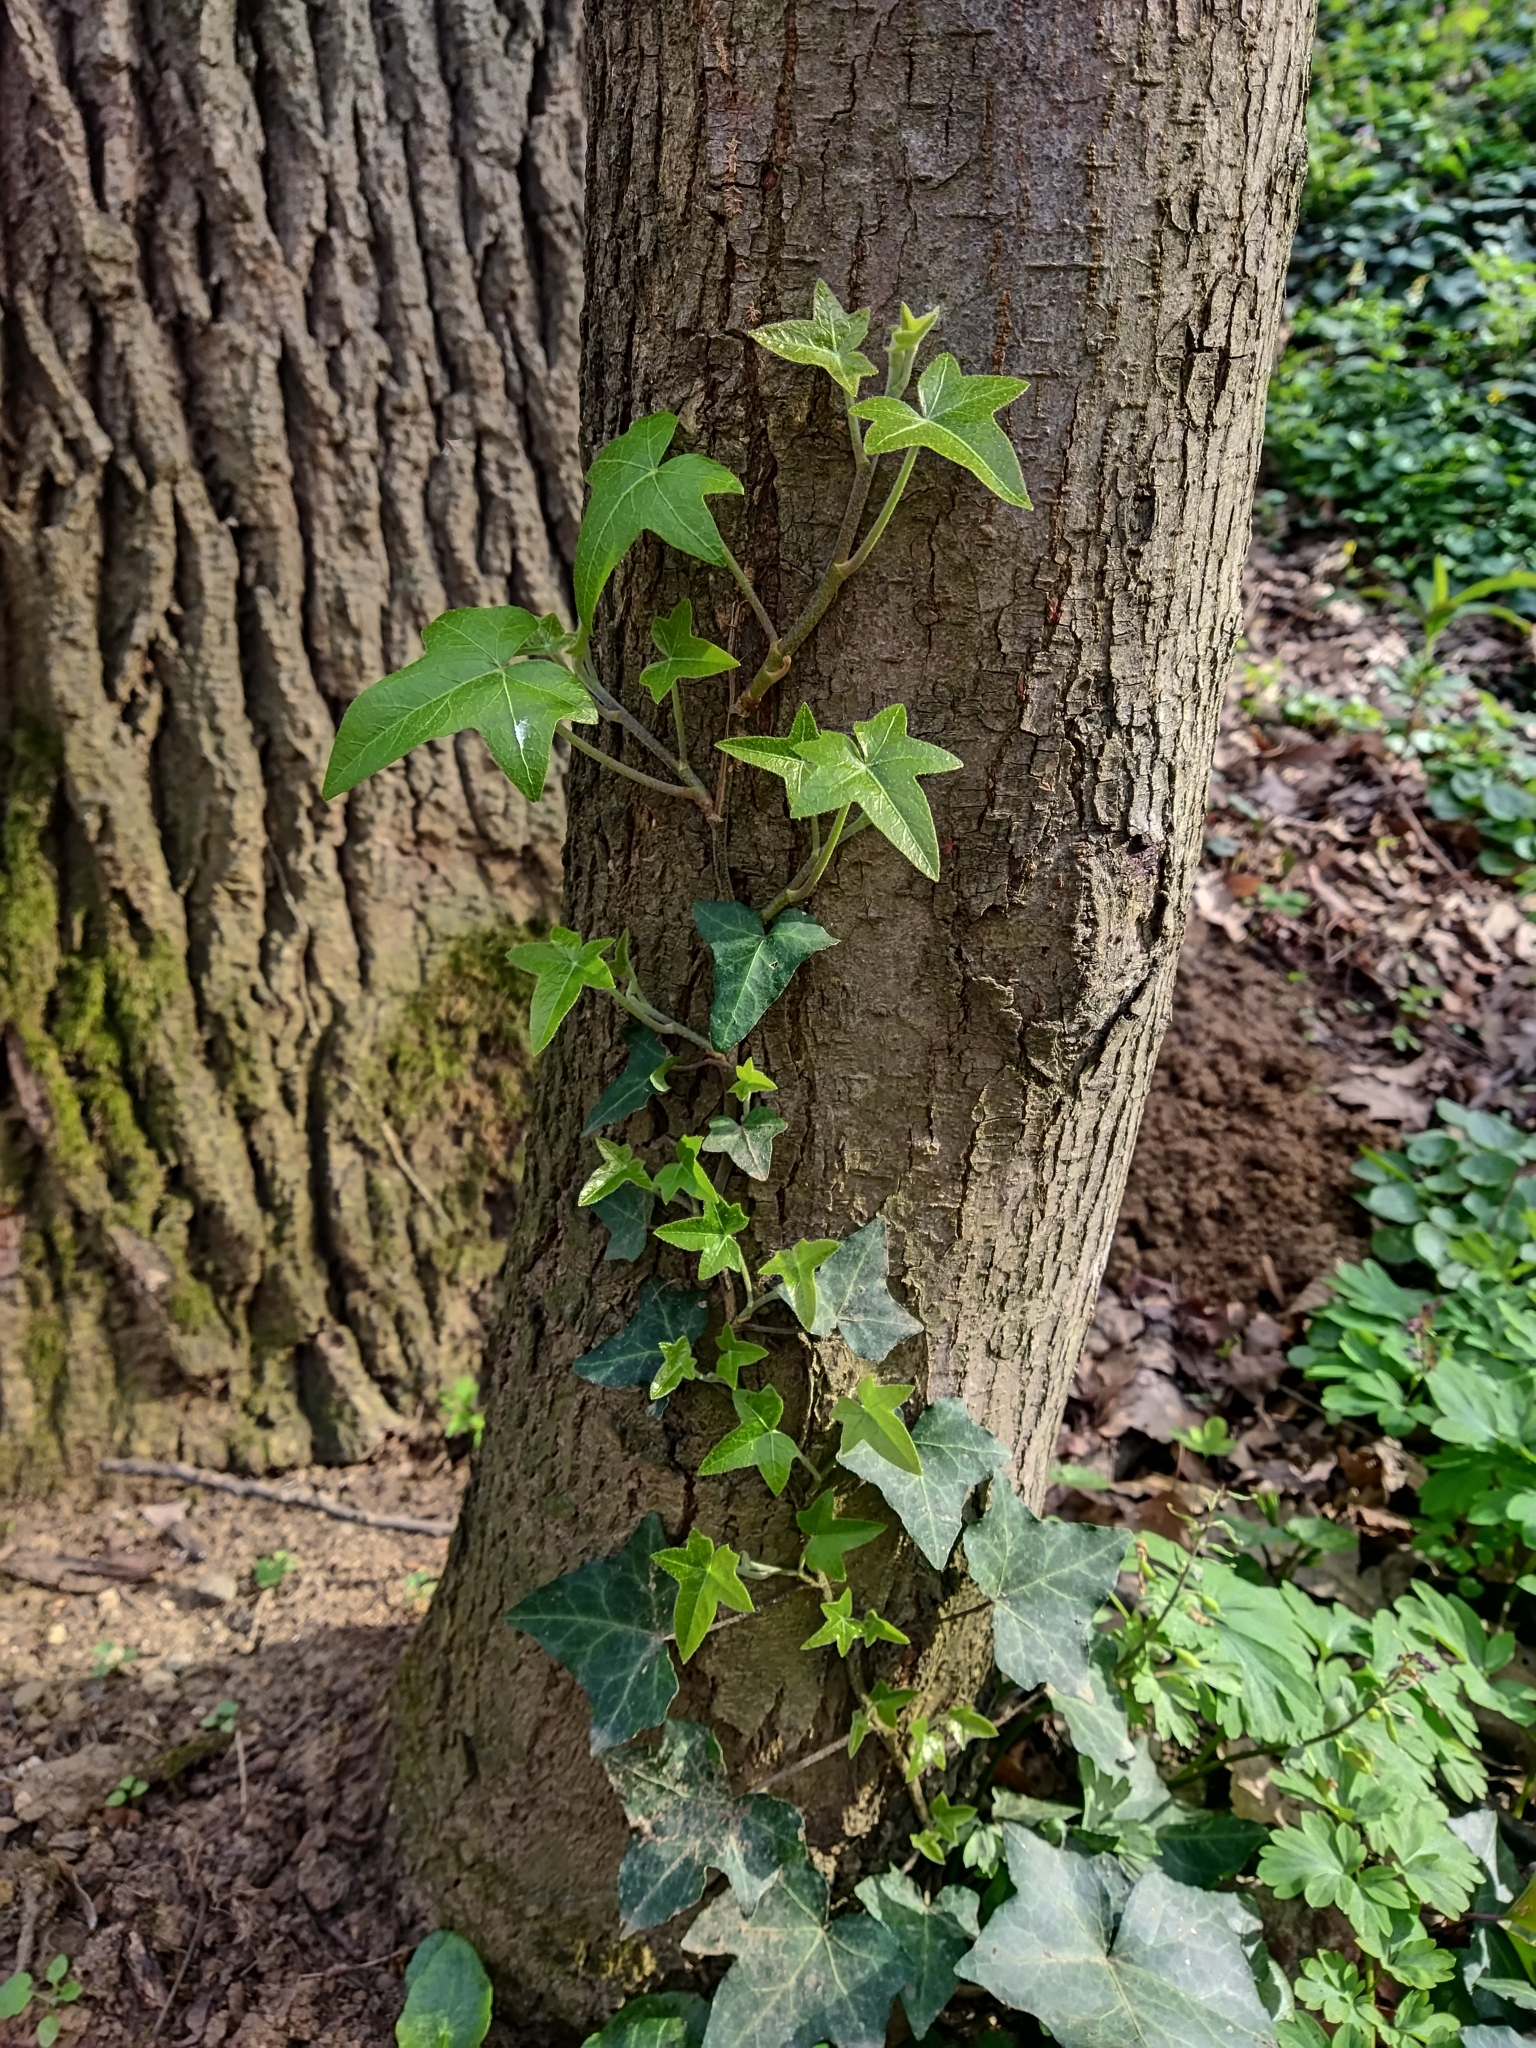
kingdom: Plantae
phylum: Tracheophyta
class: Magnoliopsida
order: Apiales
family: Araliaceae
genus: Hedera
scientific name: Hedera helix
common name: Ivy
